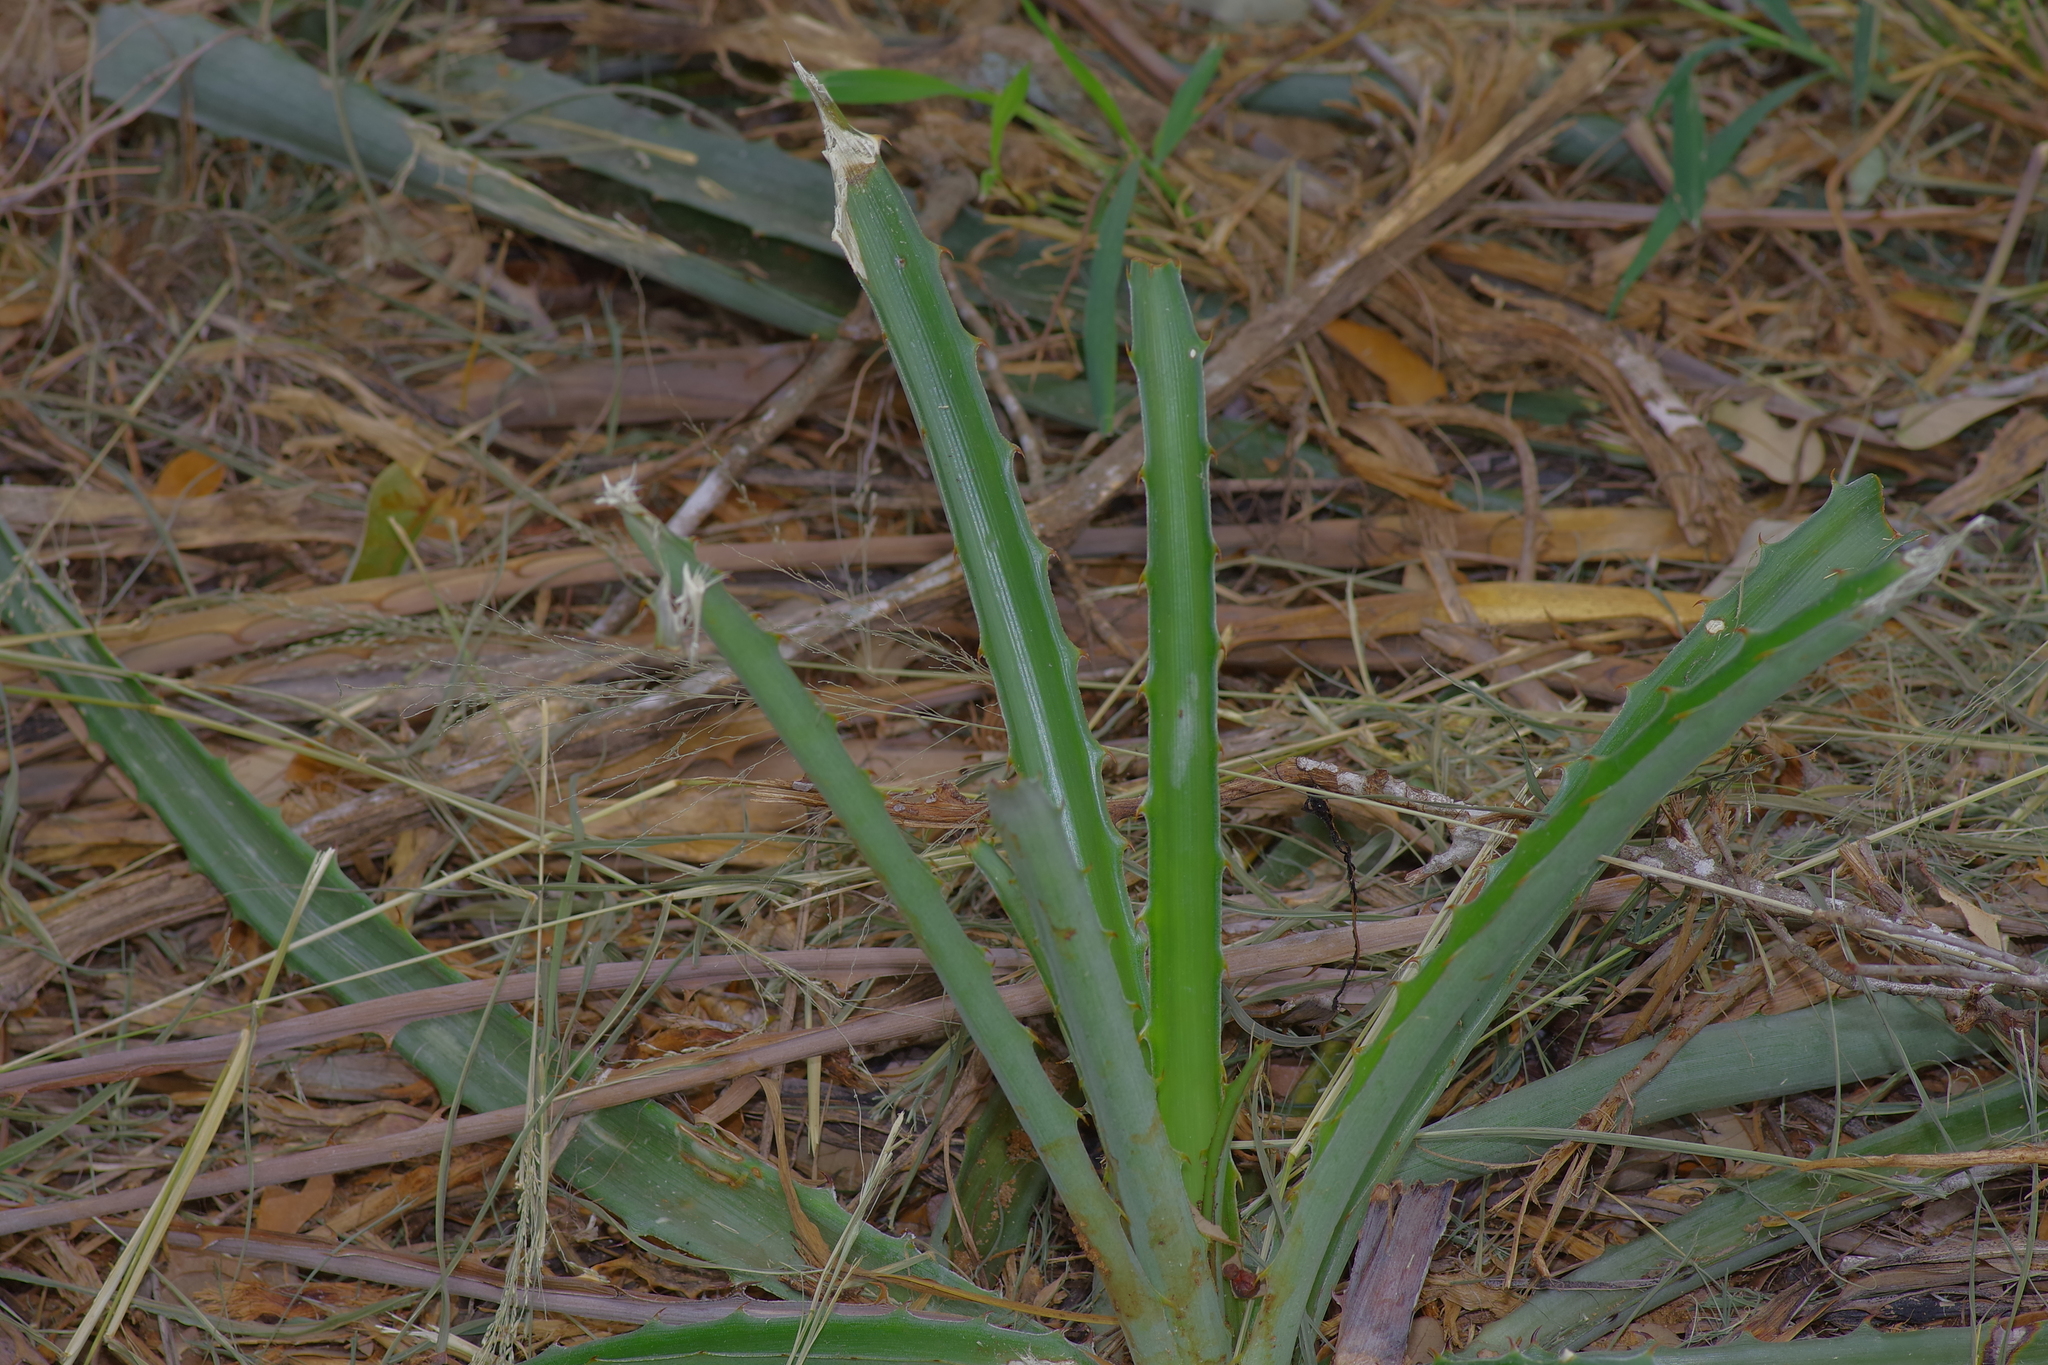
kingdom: Plantae
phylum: Tracheophyta
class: Liliopsida
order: Poales
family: Bromeliaceae
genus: Bromelia
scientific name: Bromelia pinguin
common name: Pinguin
